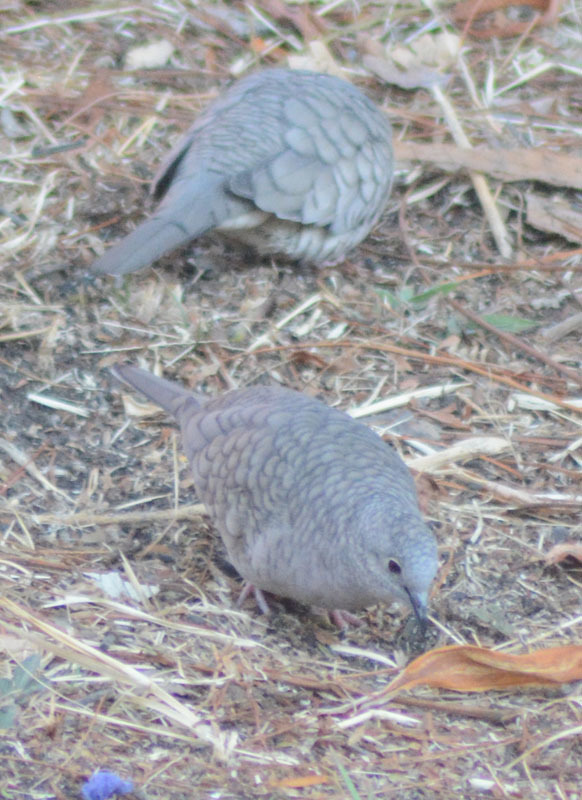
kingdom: Animalia
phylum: Chordata
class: Aves
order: Columbiformes
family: Columbidae
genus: Columbina
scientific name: Columbina inca
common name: Inca dove
